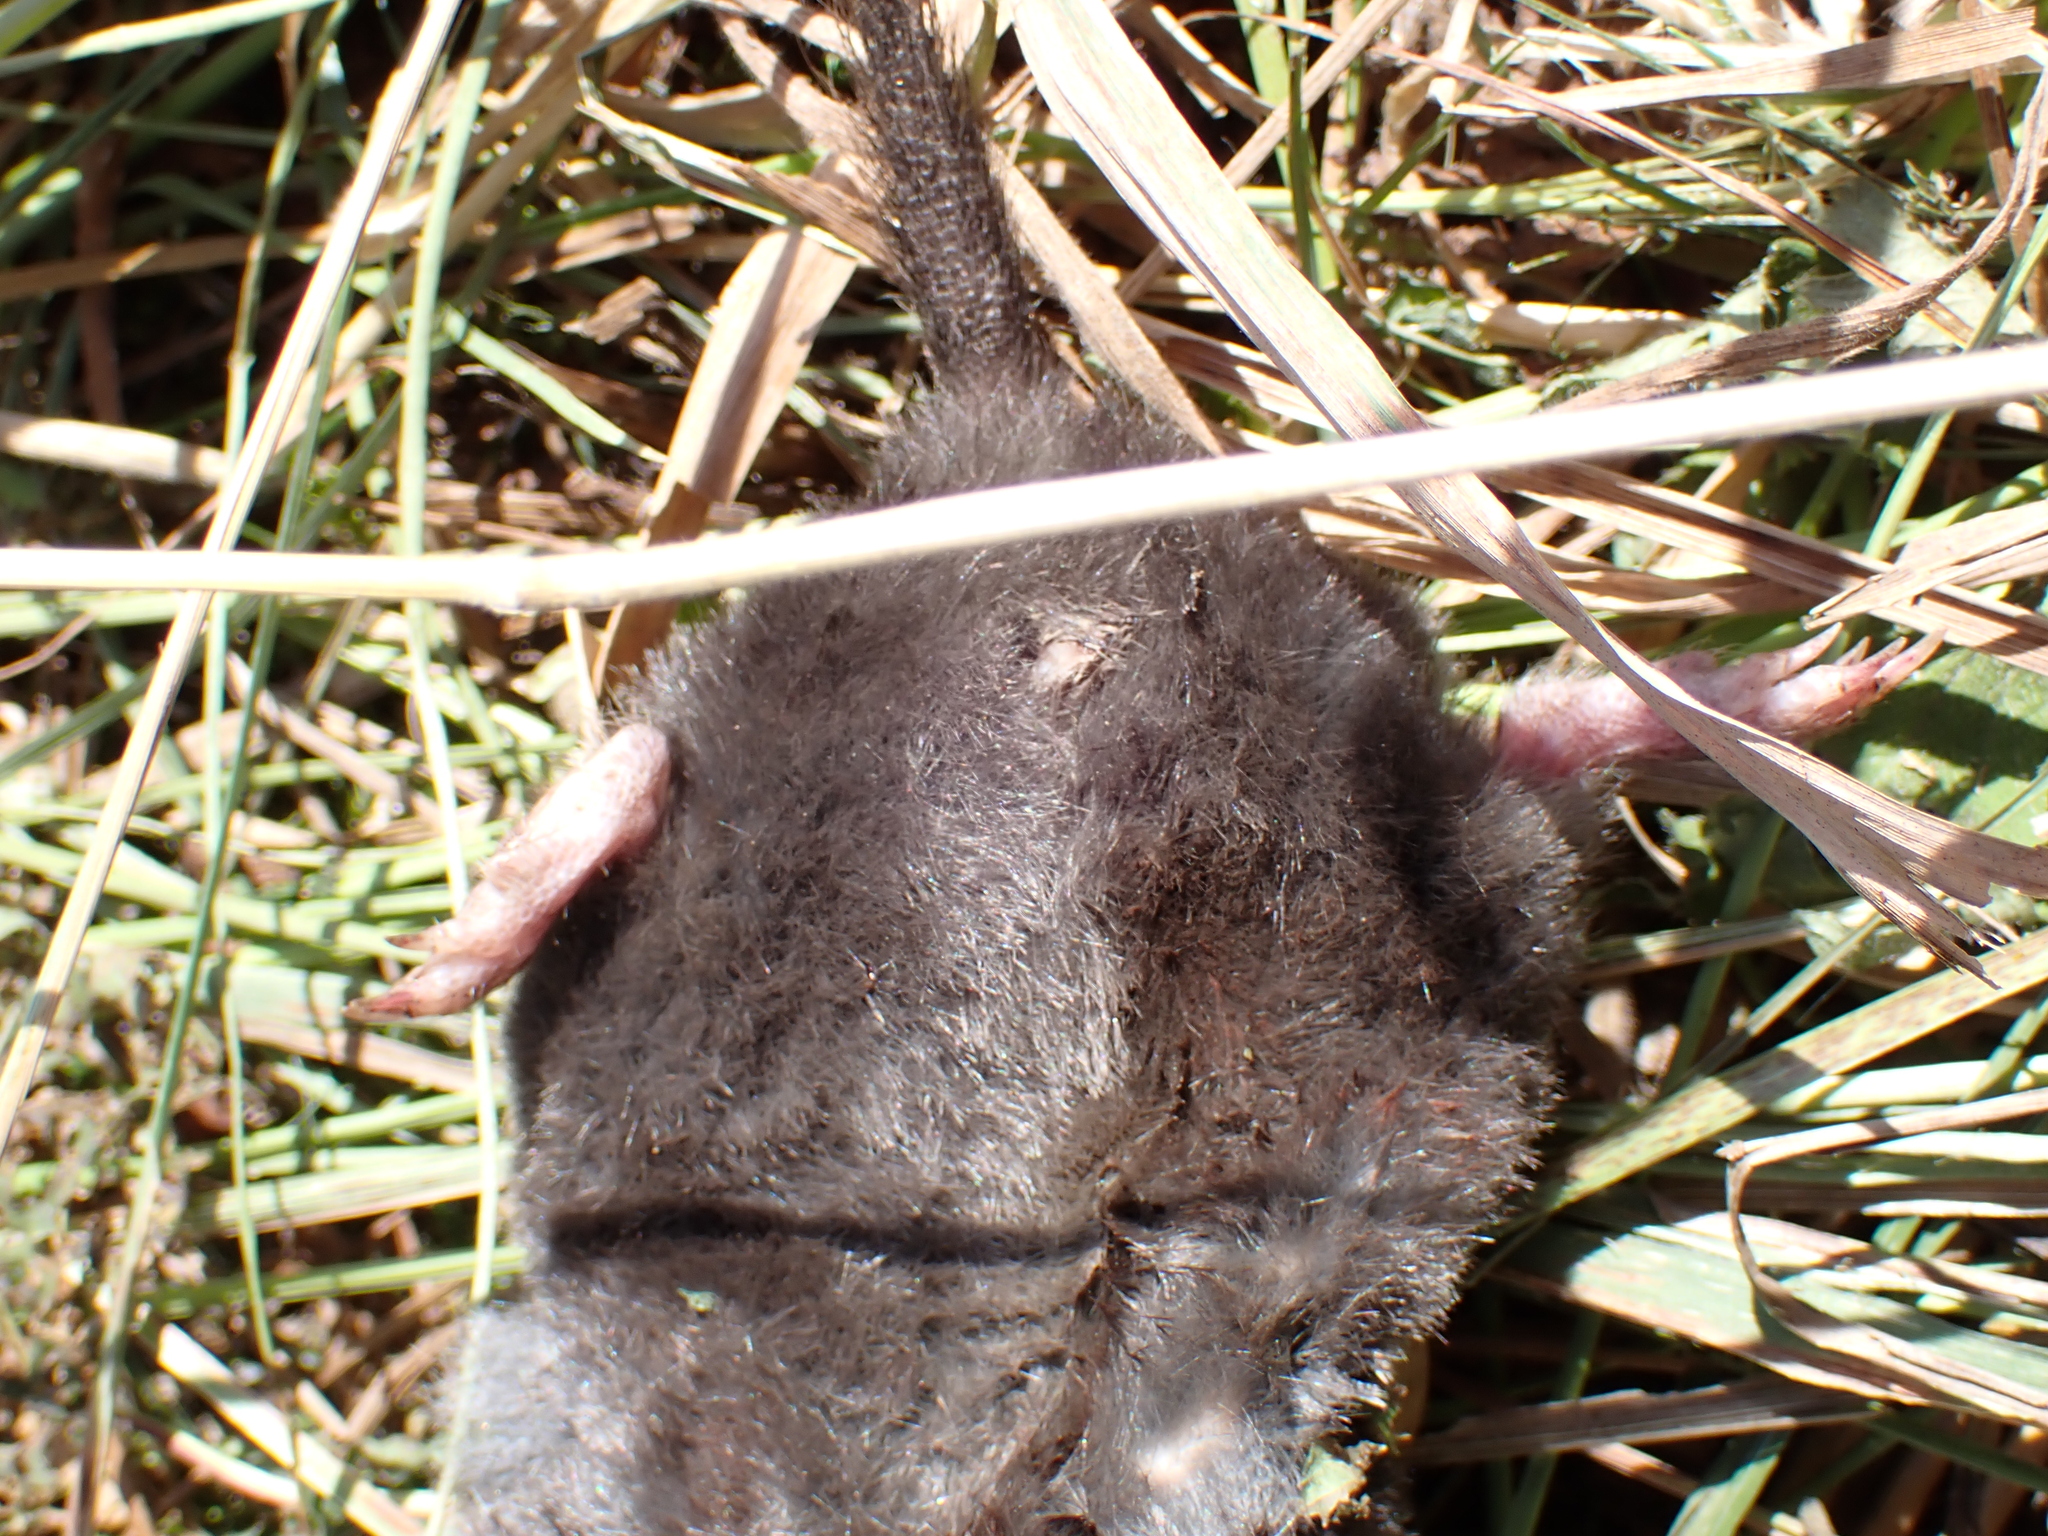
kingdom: Animalia
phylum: Chordata
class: Mammalia
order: Soricomorpha
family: Talpidae
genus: Talpa
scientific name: Talpa europaea
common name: European mole
